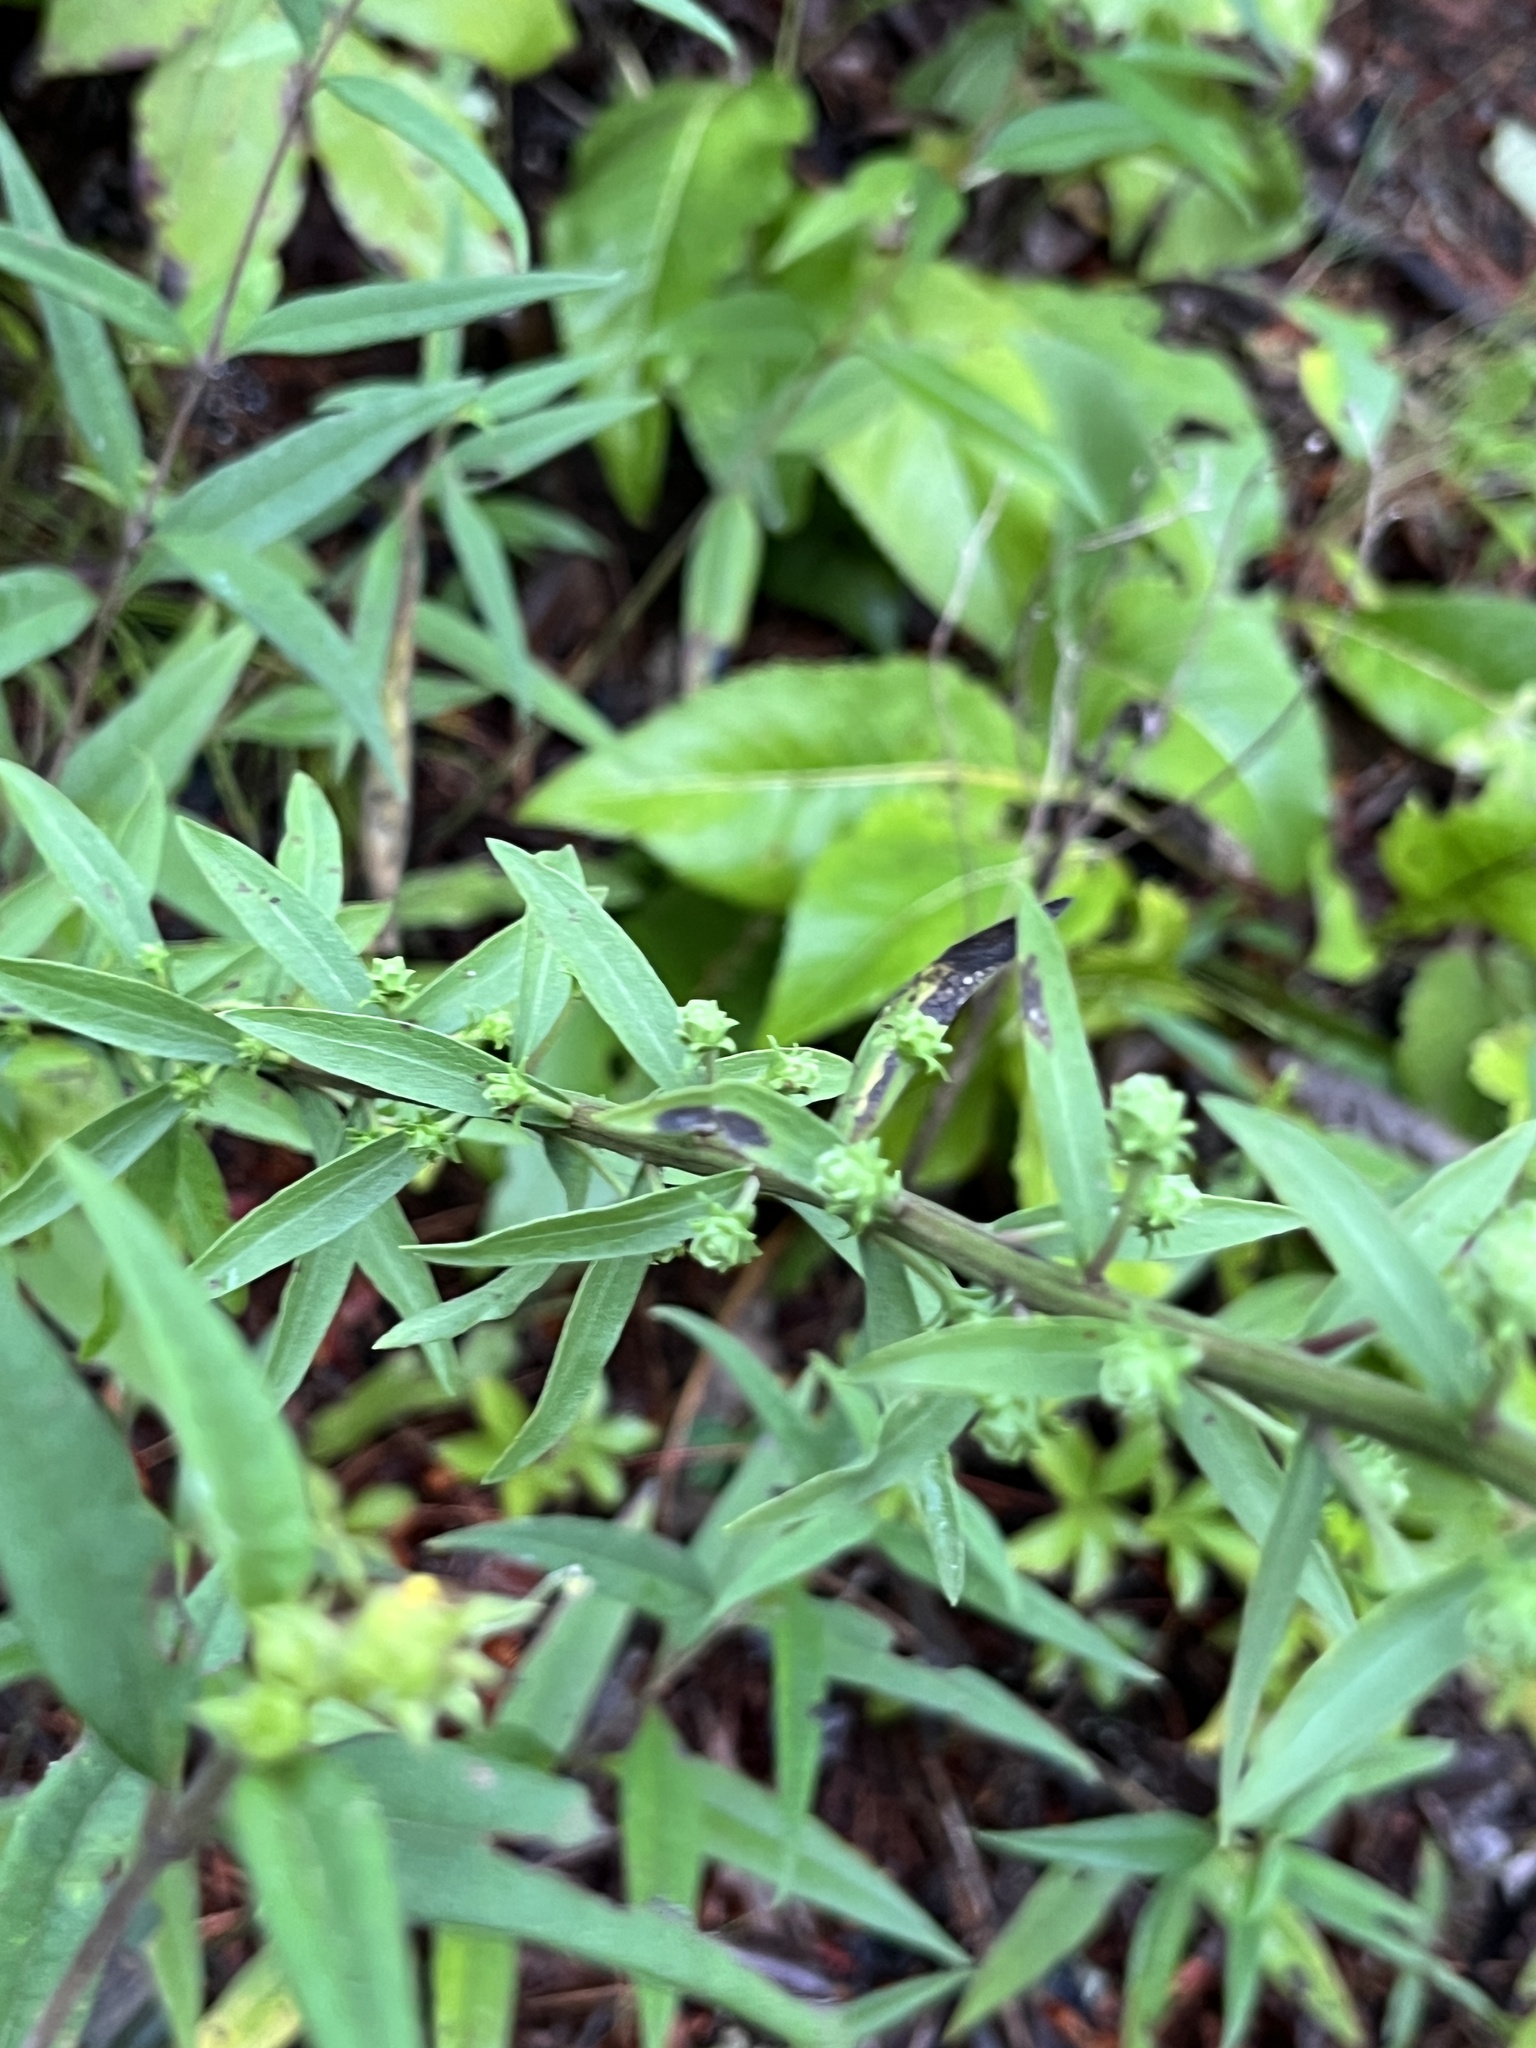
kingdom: Plantae
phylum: Tracheophyta
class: Magnoliopsida
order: Asterales
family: Asteraceae
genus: Liatris
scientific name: Liatris squarrulosa
